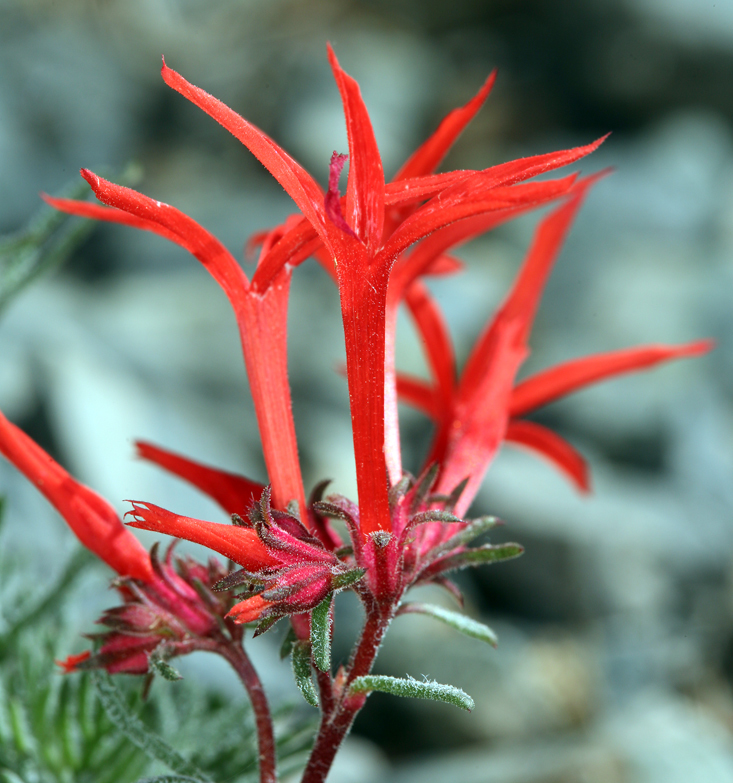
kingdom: Plantae
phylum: Tracheophyta
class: Magnoliopsida
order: Ericales
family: Polemoniaceae
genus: Ipomopsis
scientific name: Ipomopsis arizonica
